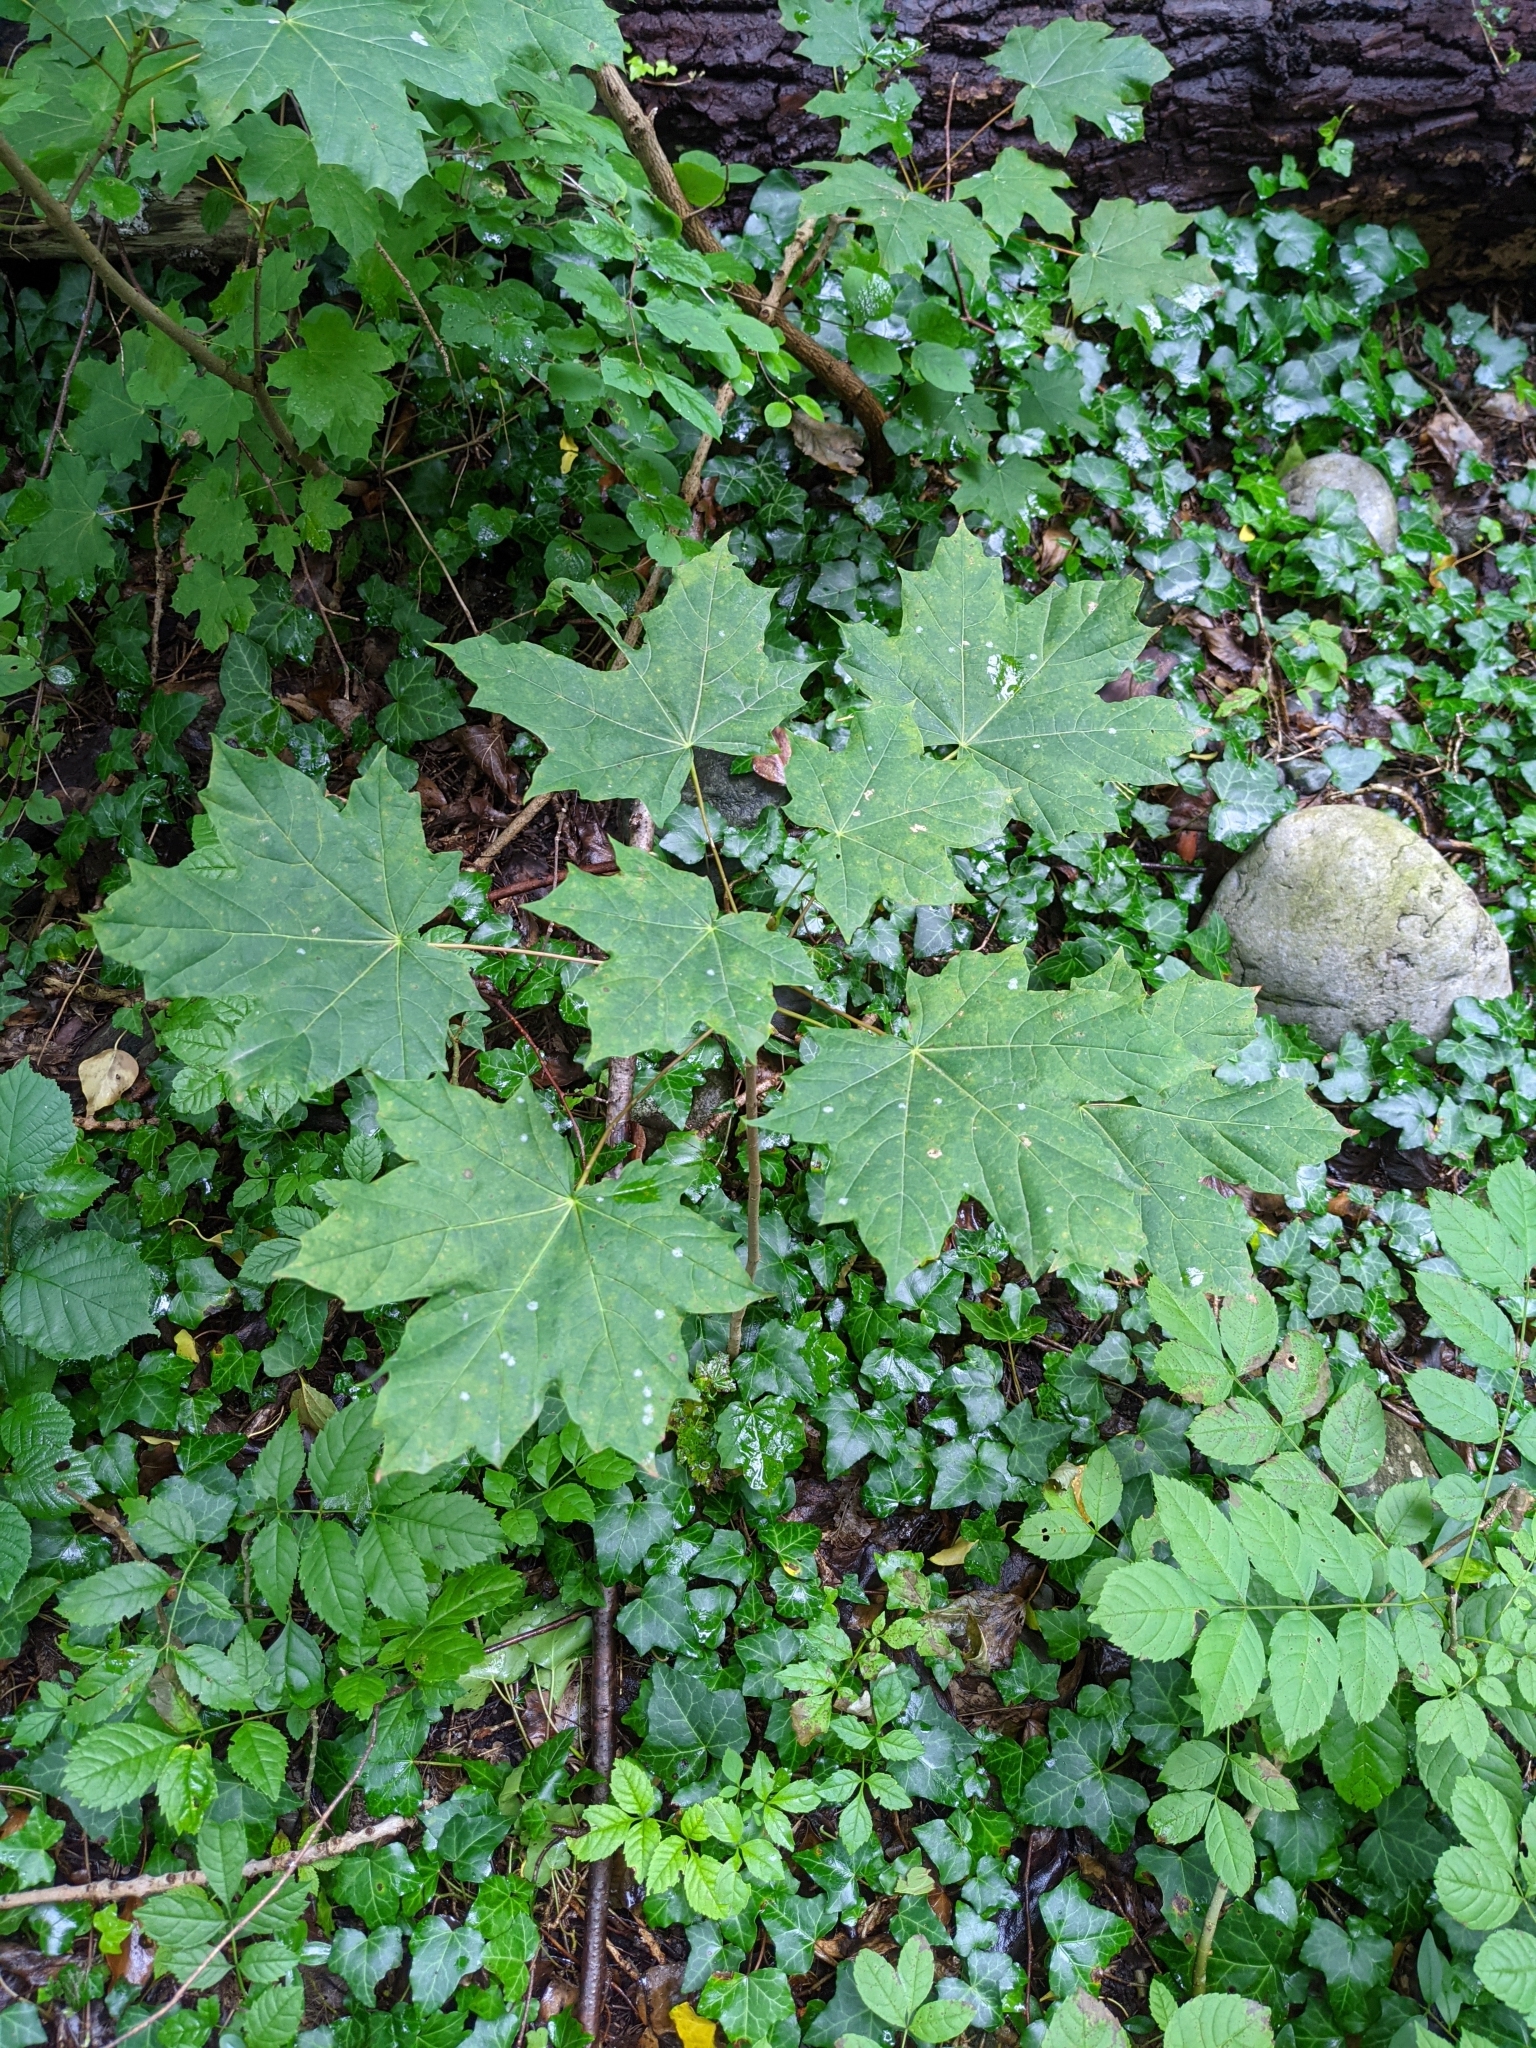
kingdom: Plantae
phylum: Tracheophyta
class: Magnoliopsida
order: Sapindales
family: Sapindaceae
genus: Acer
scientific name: Acer platanoides
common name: Norway maple
